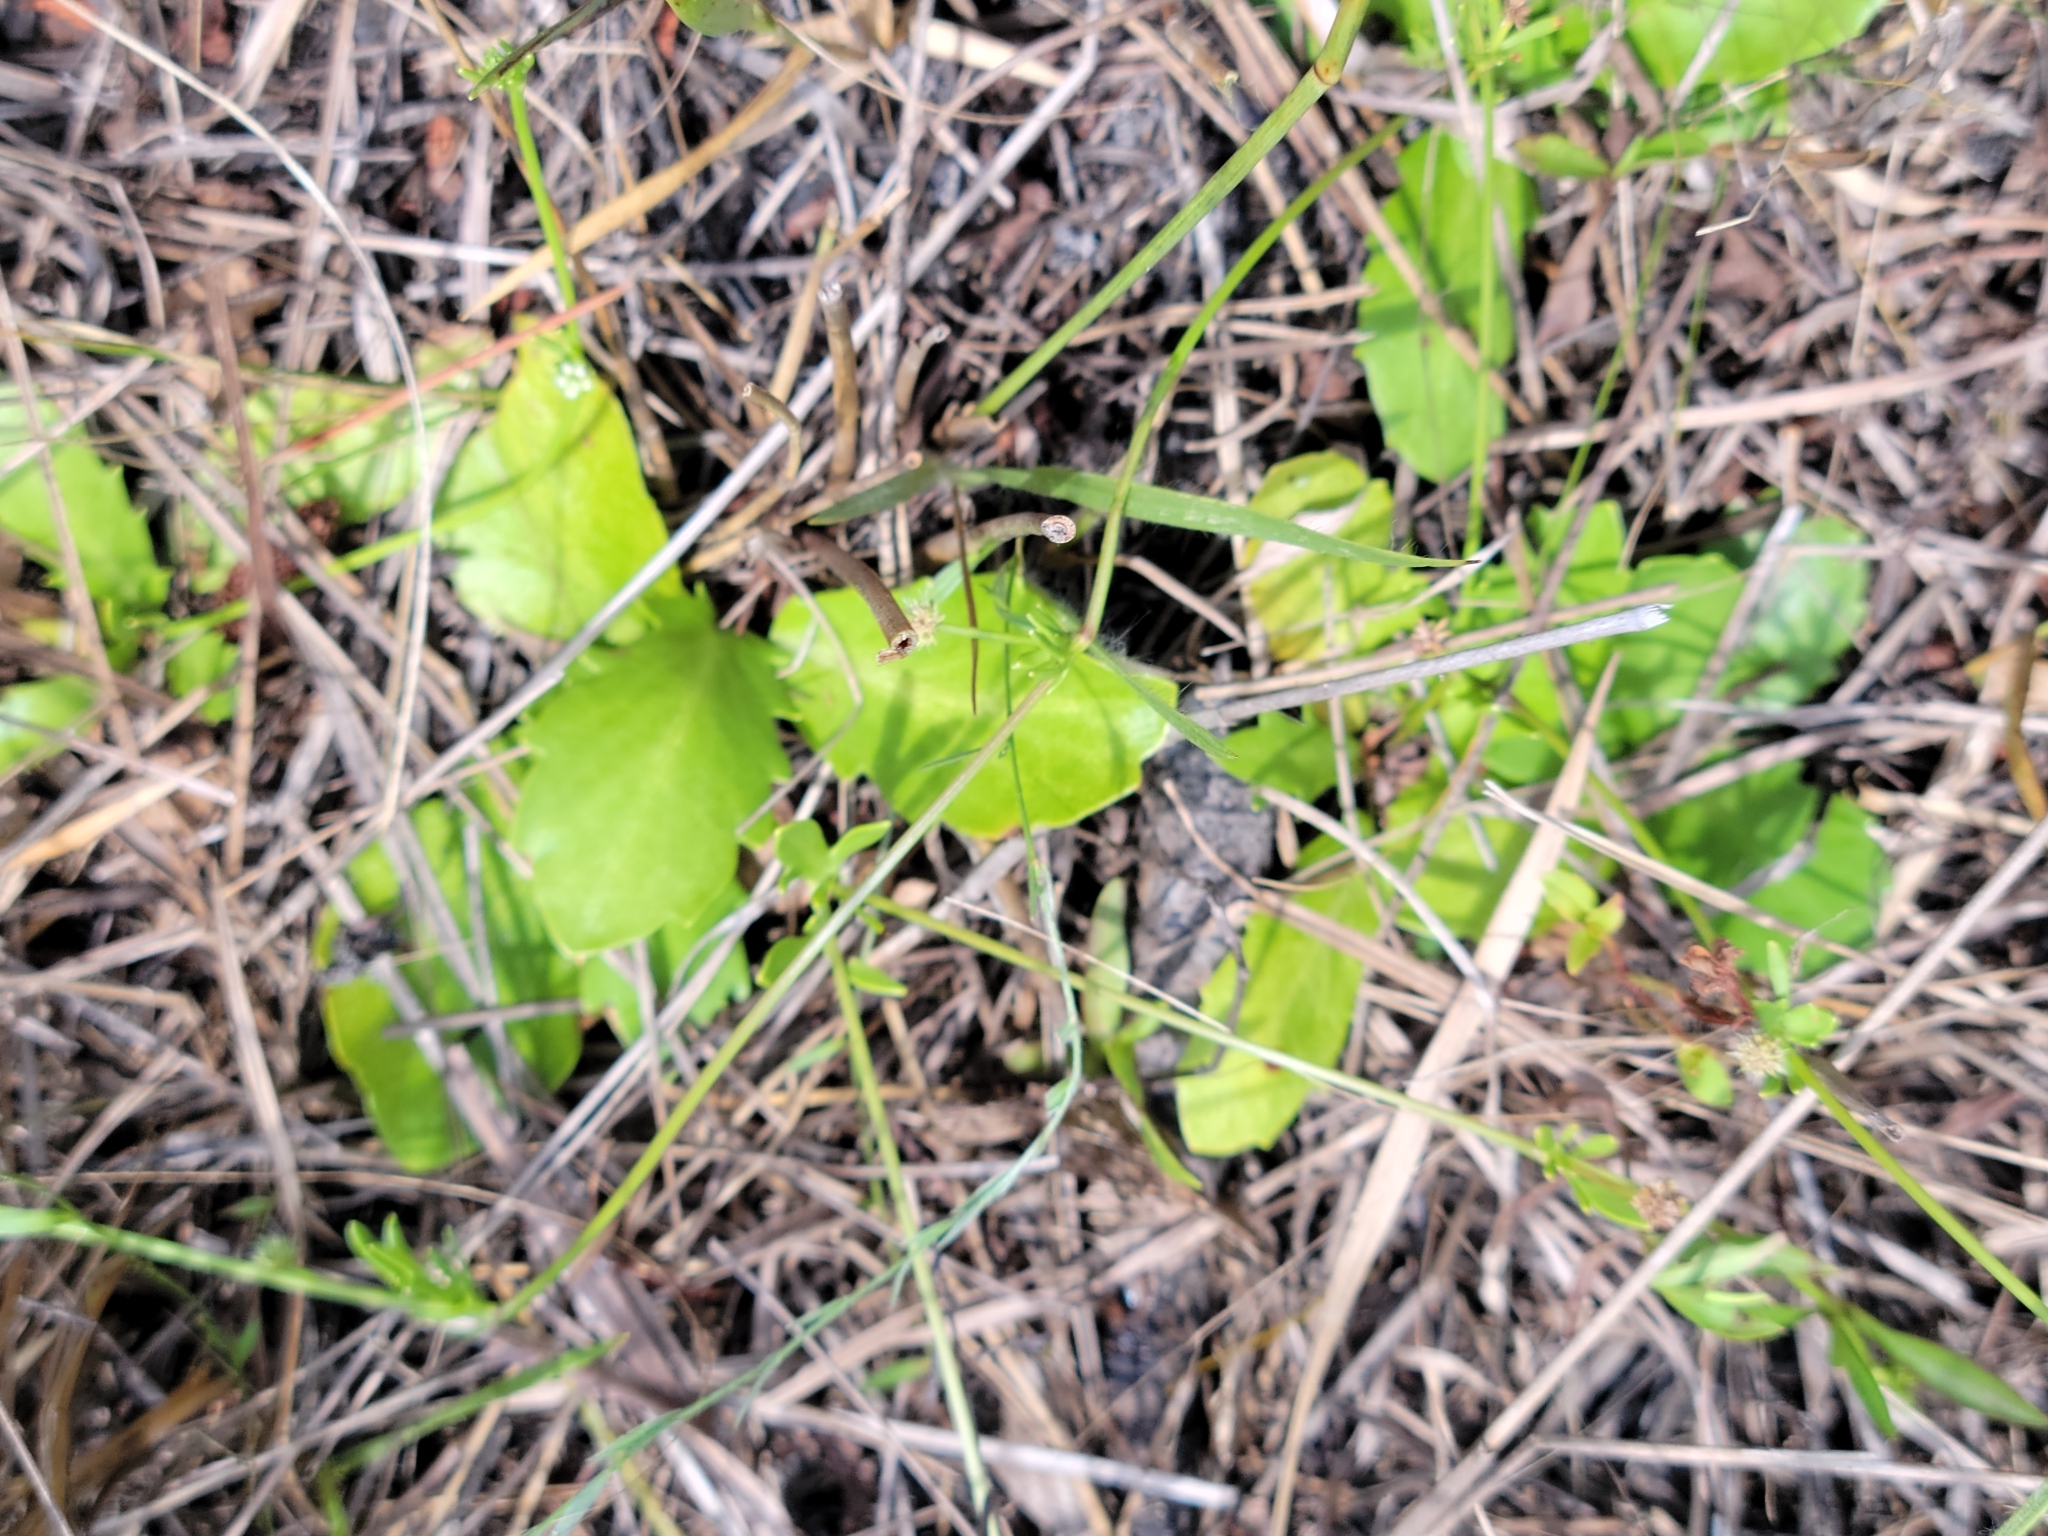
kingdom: Plantae
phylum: Tracheophyta
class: Magnoliopsida
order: Apiales
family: Apiaceae
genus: Eryngium
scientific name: Eryngium baldwinii
